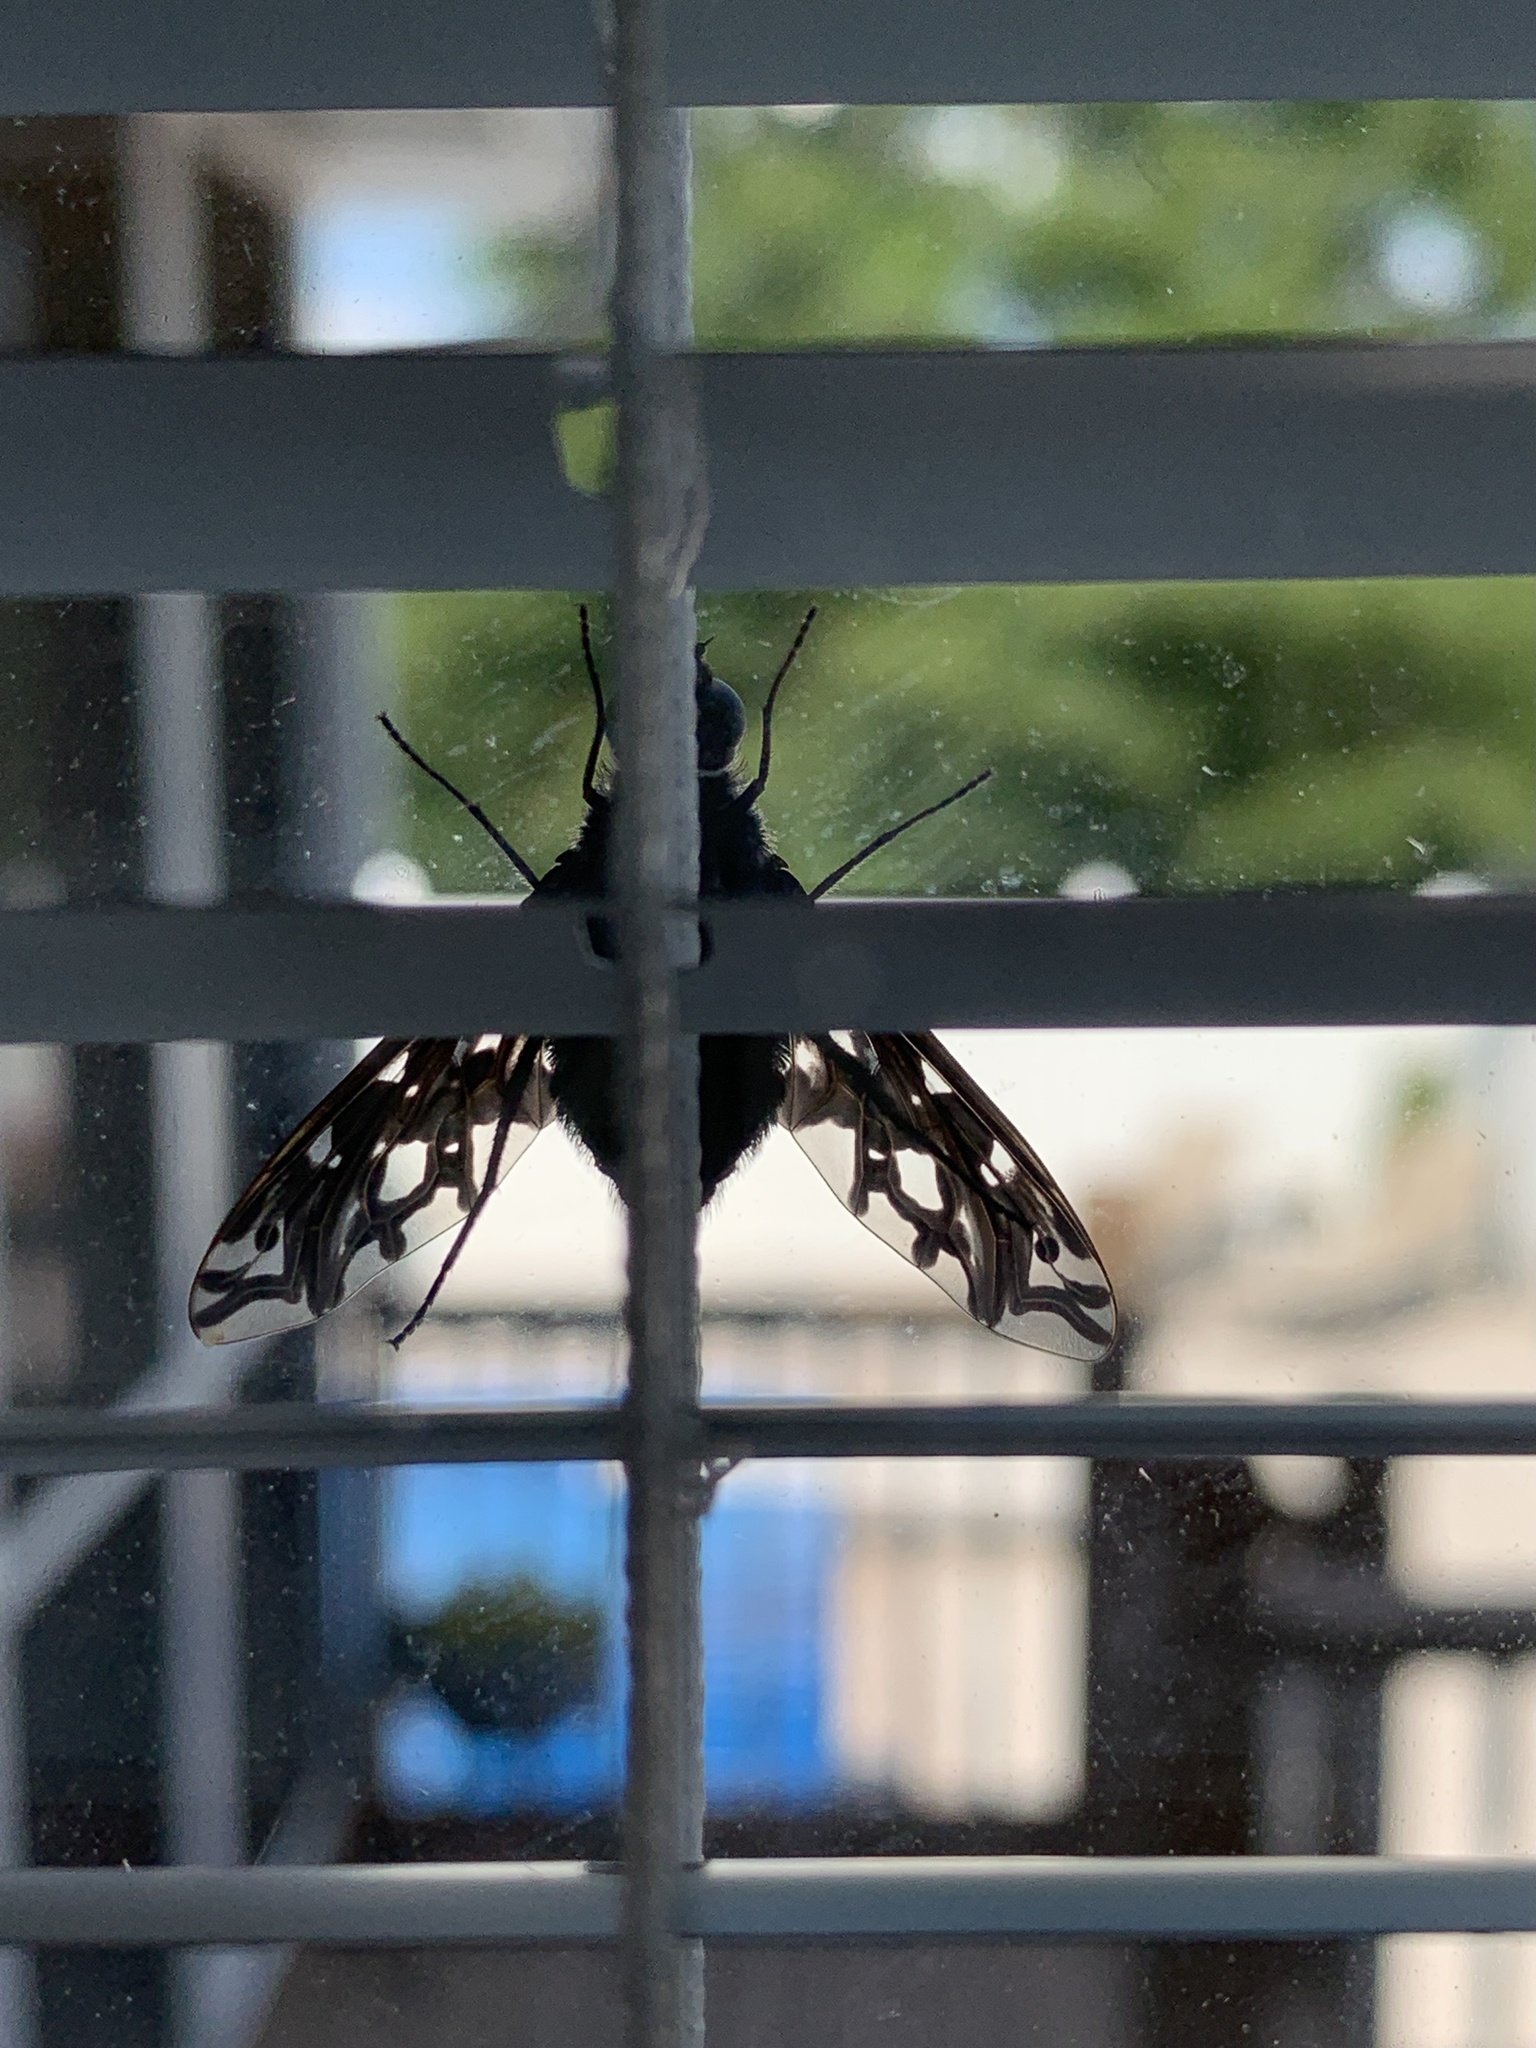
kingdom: Animalia
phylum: Arthropoda
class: Insecta
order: Diptera
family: Bombyliidae
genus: Xenox
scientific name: Xenox tigrinus
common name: Tiger bee fly
